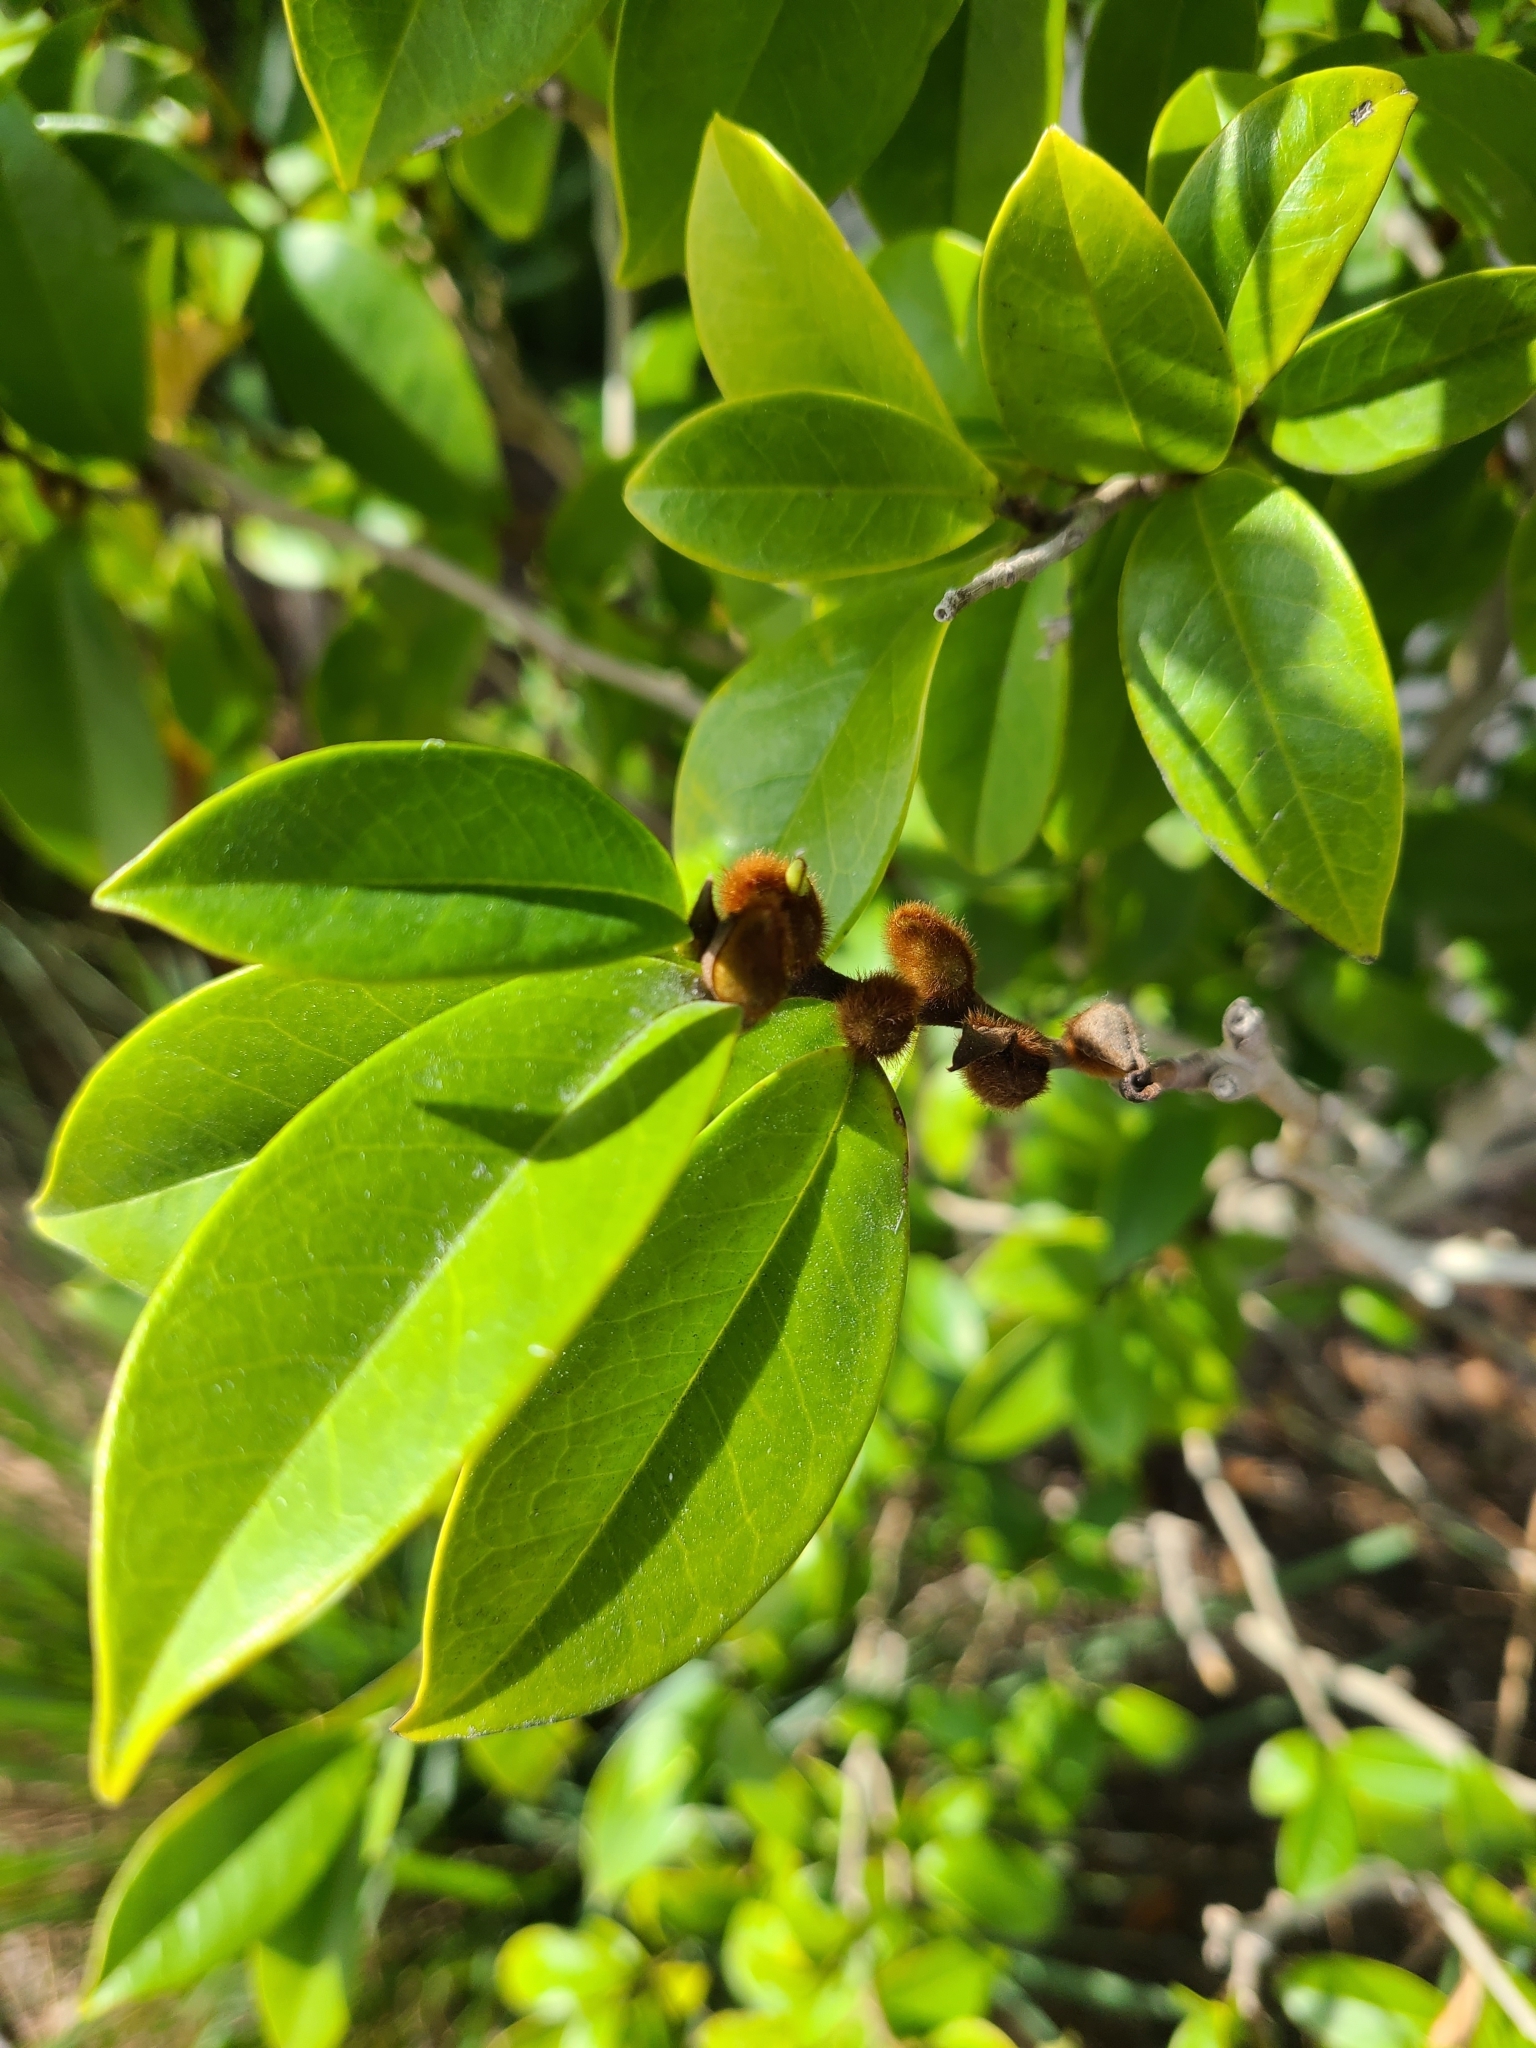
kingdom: Plantae
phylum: Tracheophyta
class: Magnoliopsida
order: Magnoliales
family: Magnoliaceae
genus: Magnolia
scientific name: Magnolia figo
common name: Banana shrub
